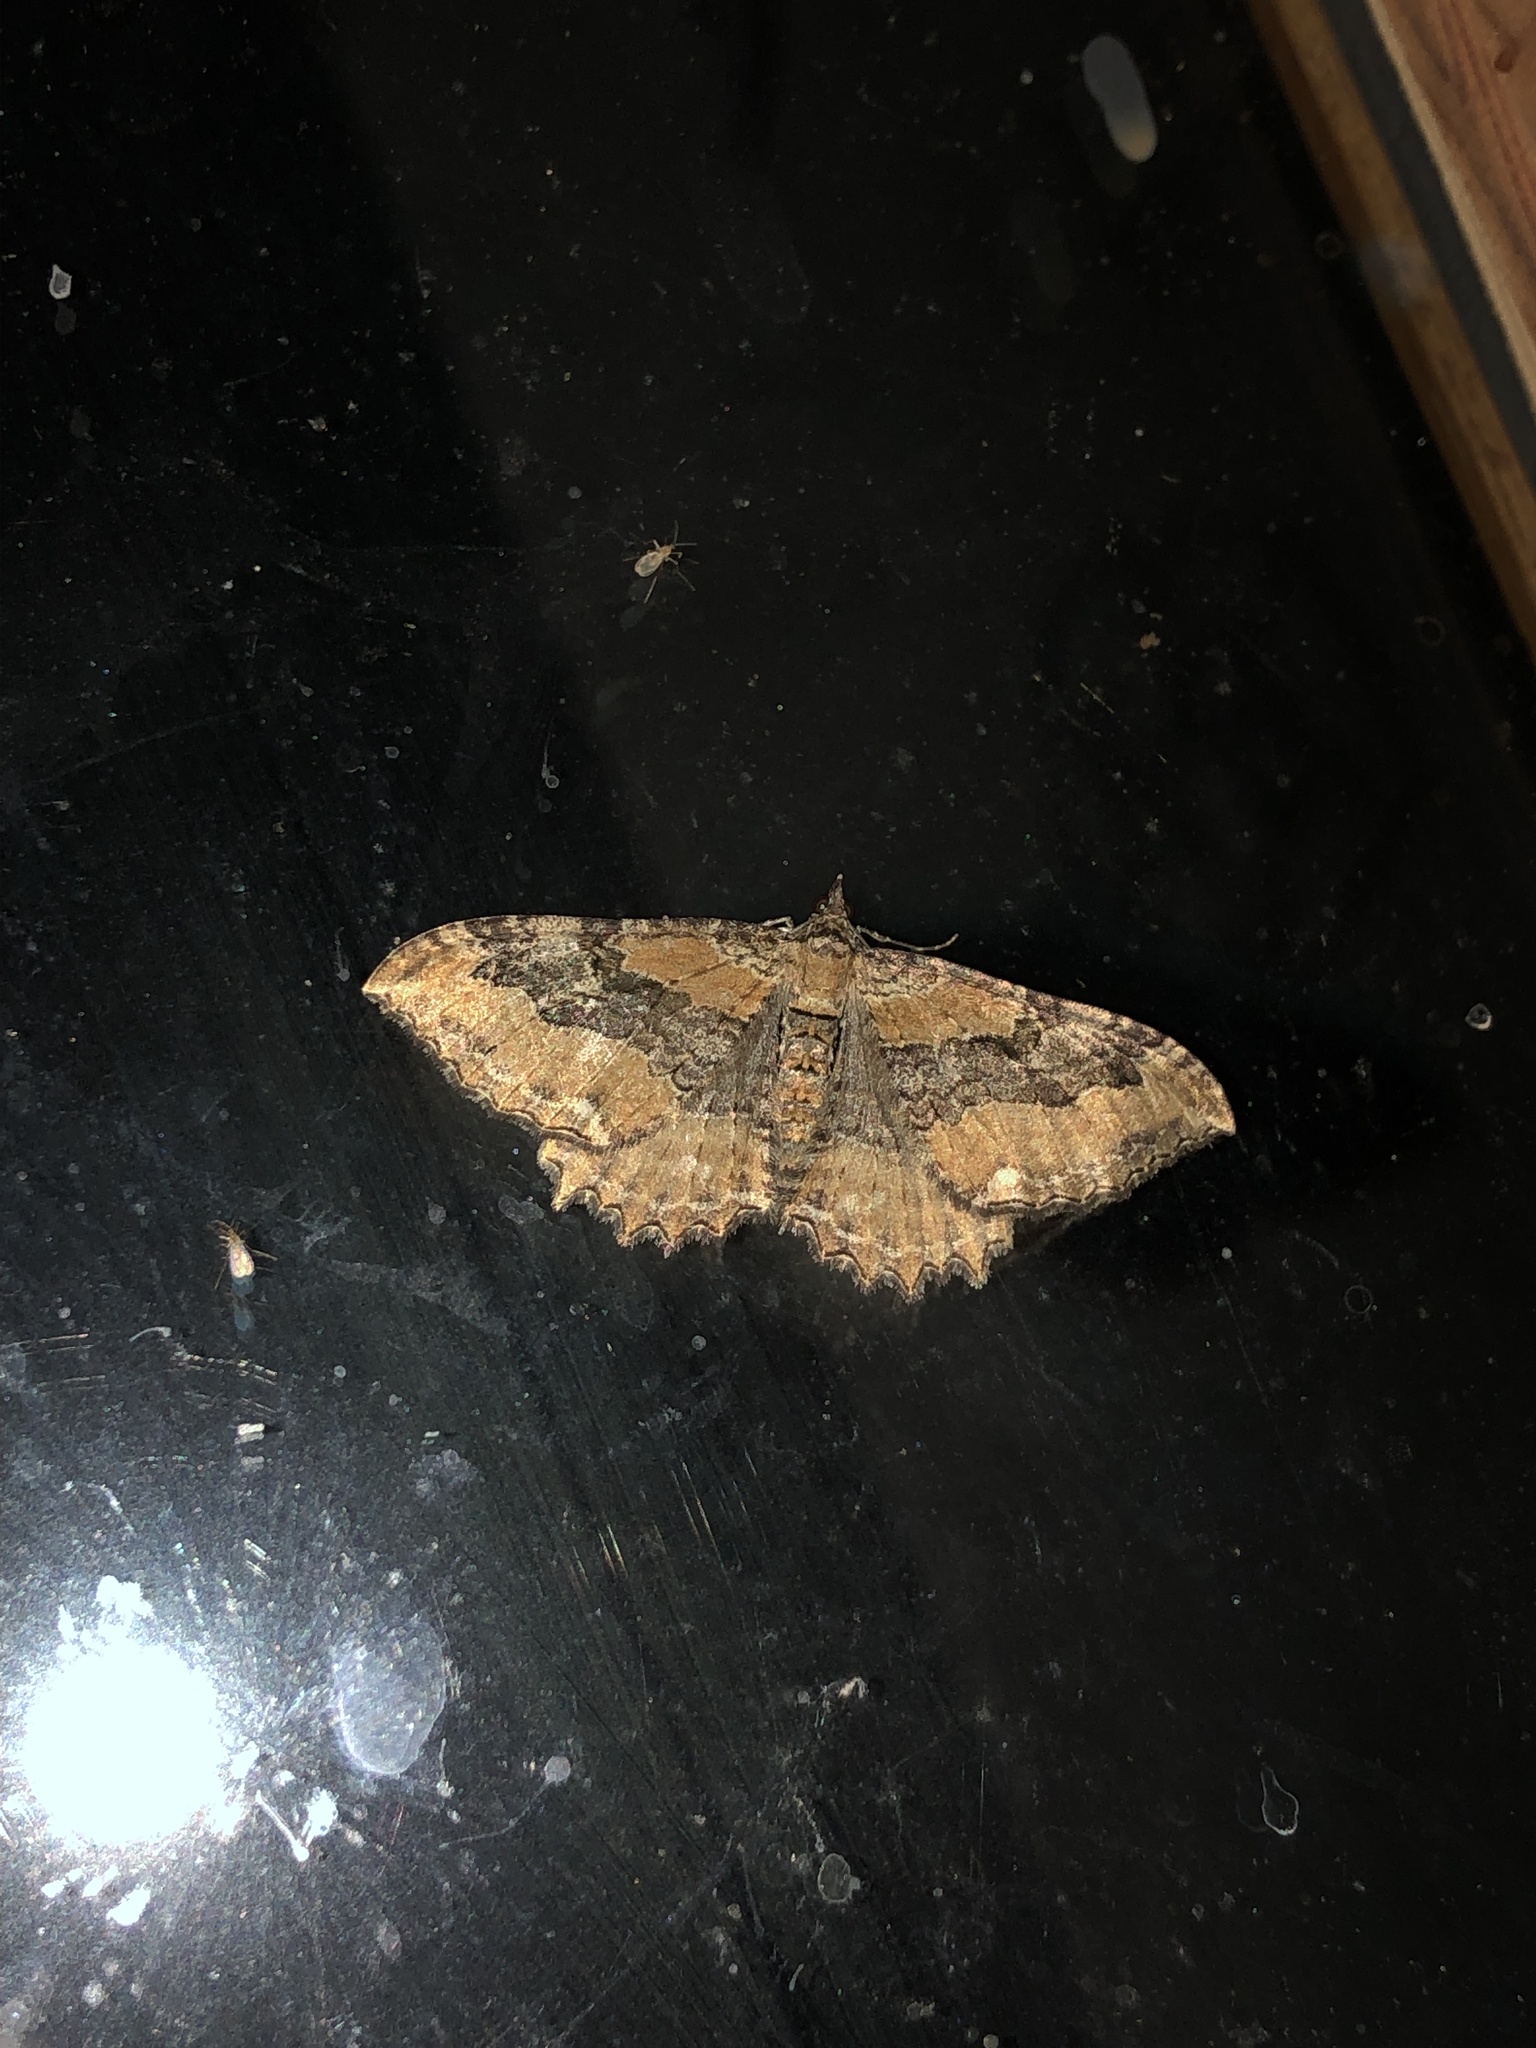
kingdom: Animalia
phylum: Arthropoda
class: Insecta
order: Lepidoptera
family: Geometridae
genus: Rheumaptera
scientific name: Rheumaptera
